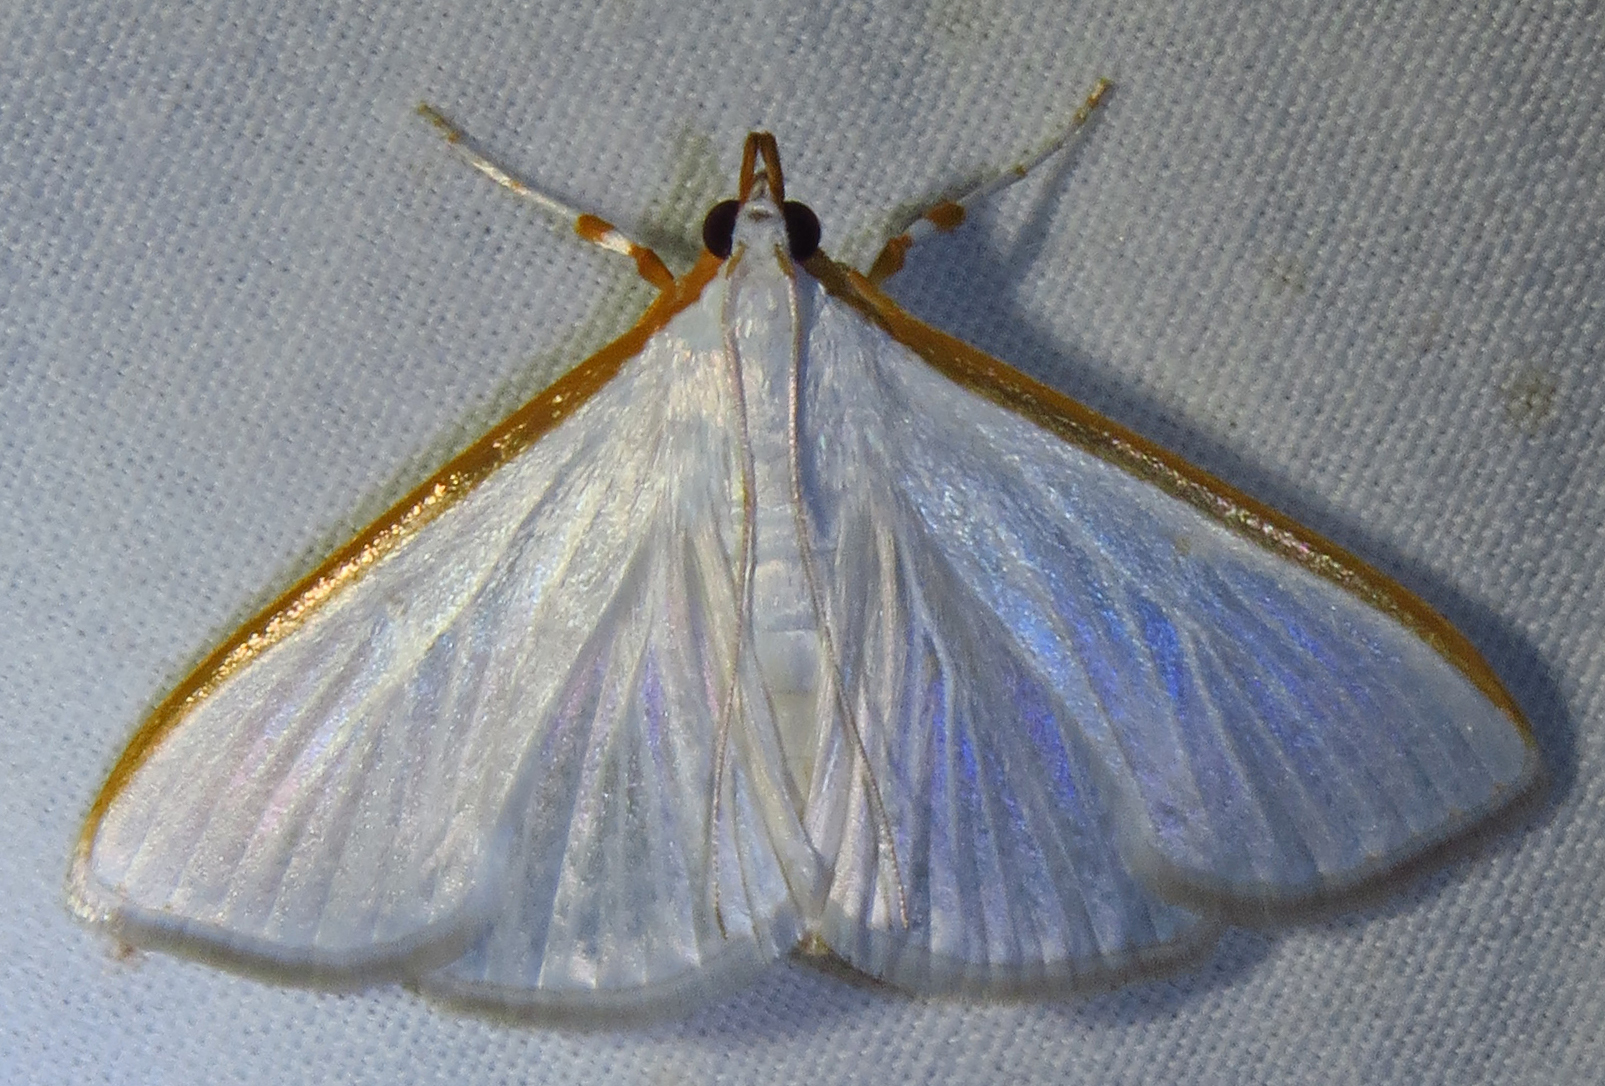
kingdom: Animalia
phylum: Arthropoda
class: Insecta
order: Lepidoptera
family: Crambidae
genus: Diaphania
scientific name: Diaphania costata
